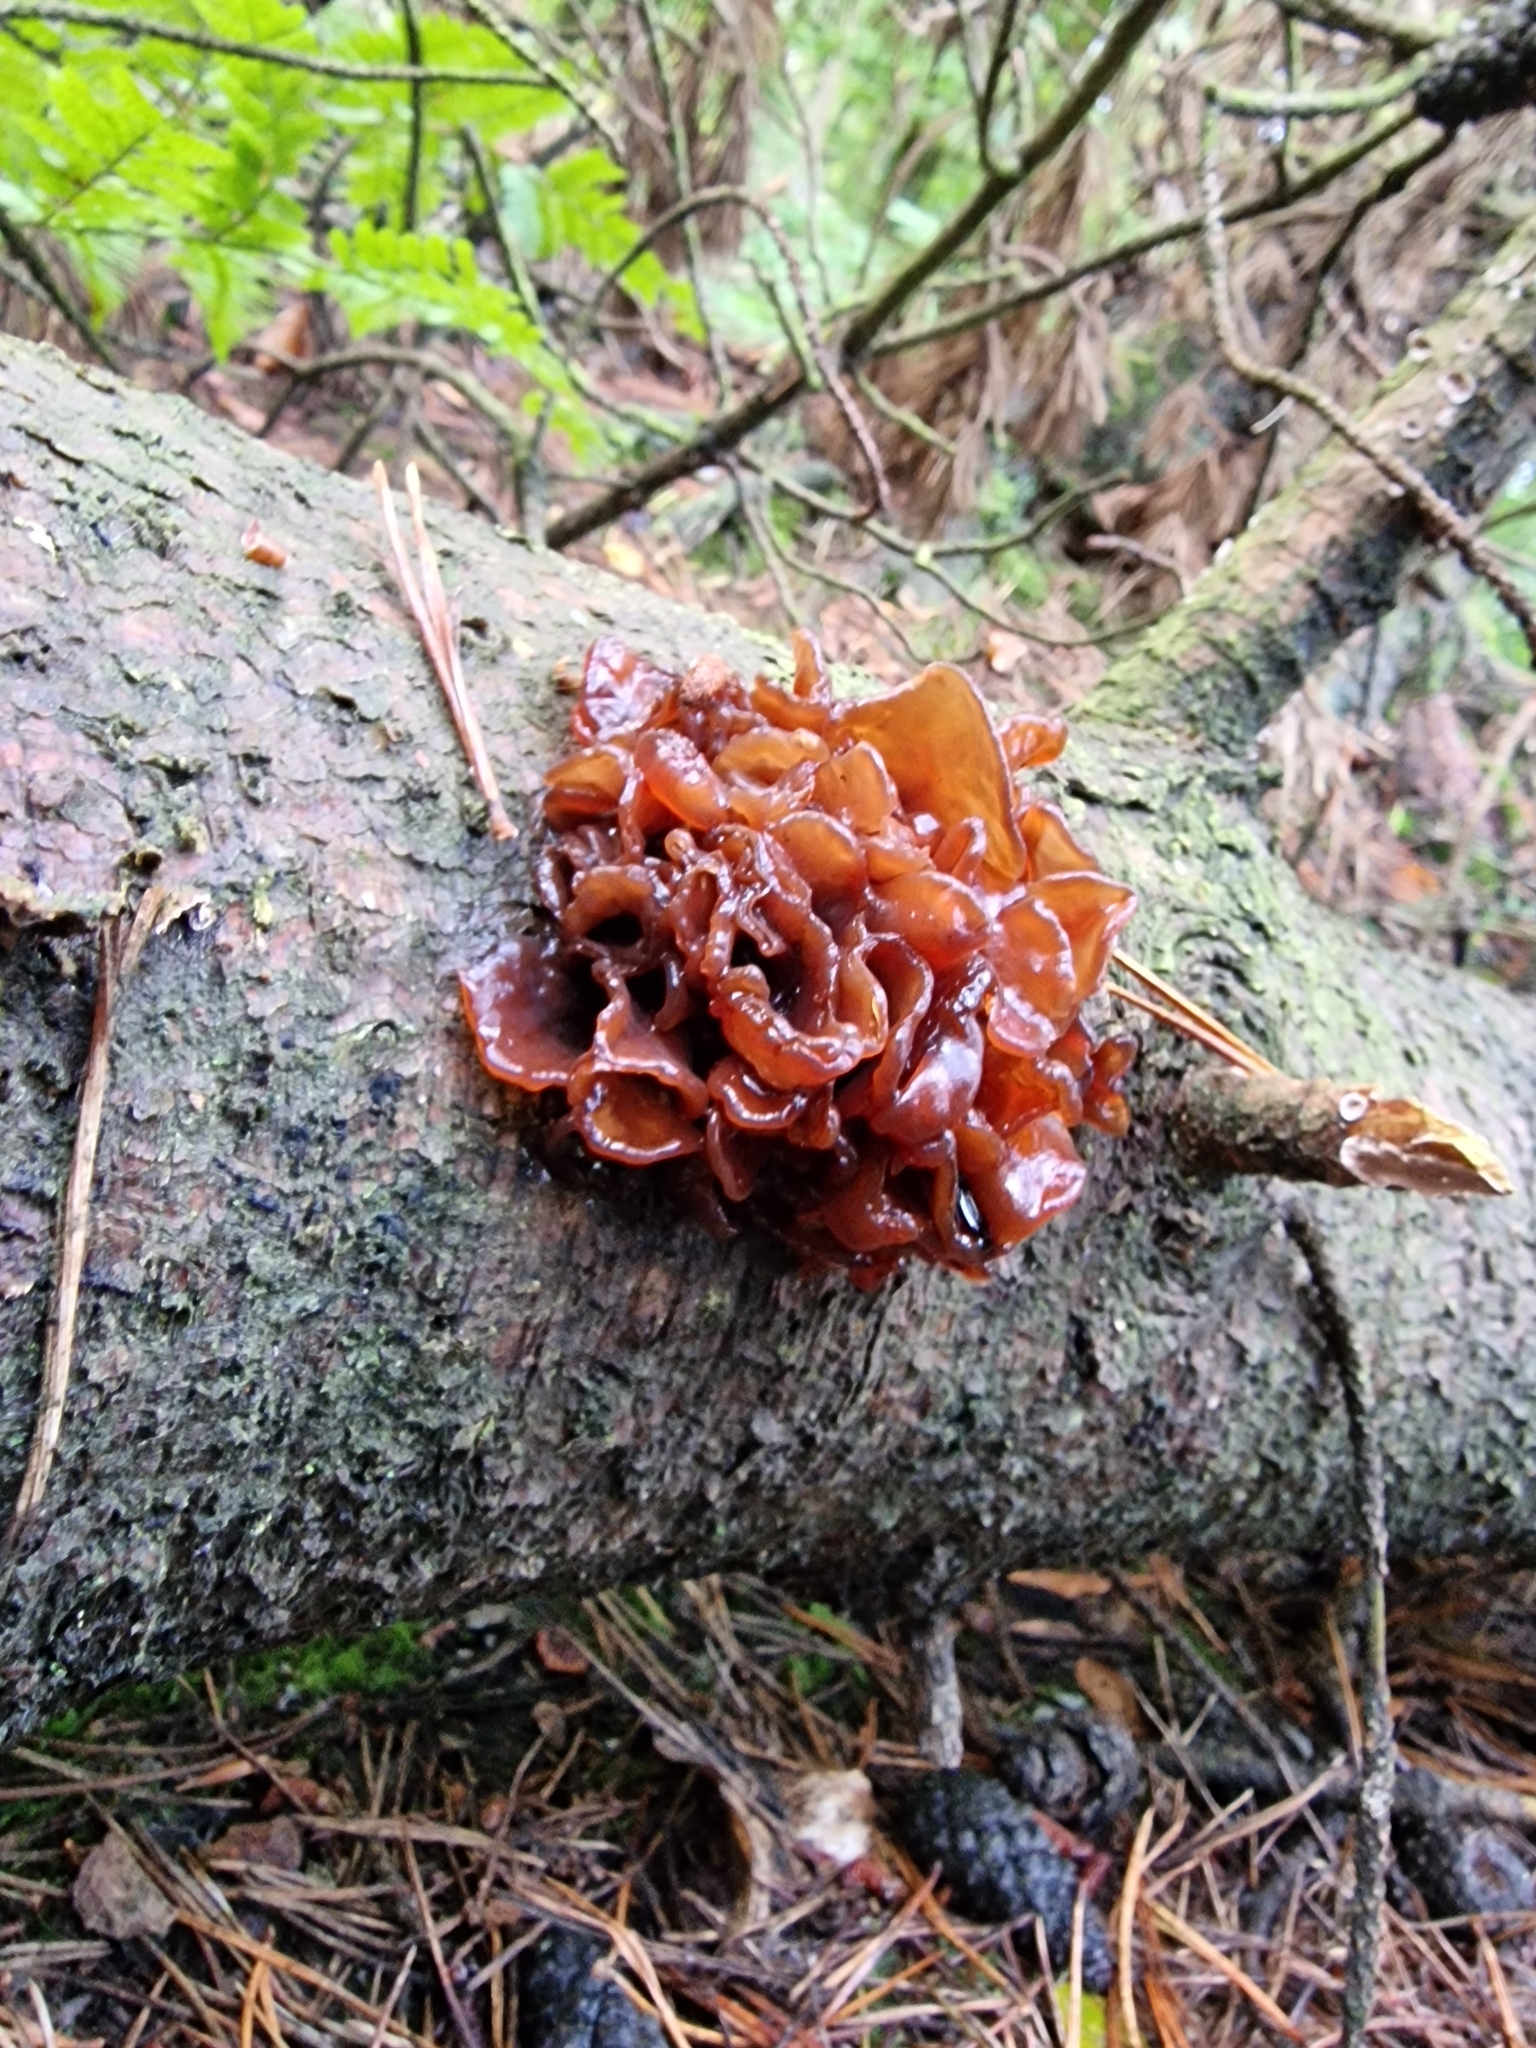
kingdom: Fungi
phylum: Basidiomycota
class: Tremellomycetes
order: Tremellales
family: Tremellaceae
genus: Phaeotremella
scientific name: Phaeotremella foliacea
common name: Leafy brain
